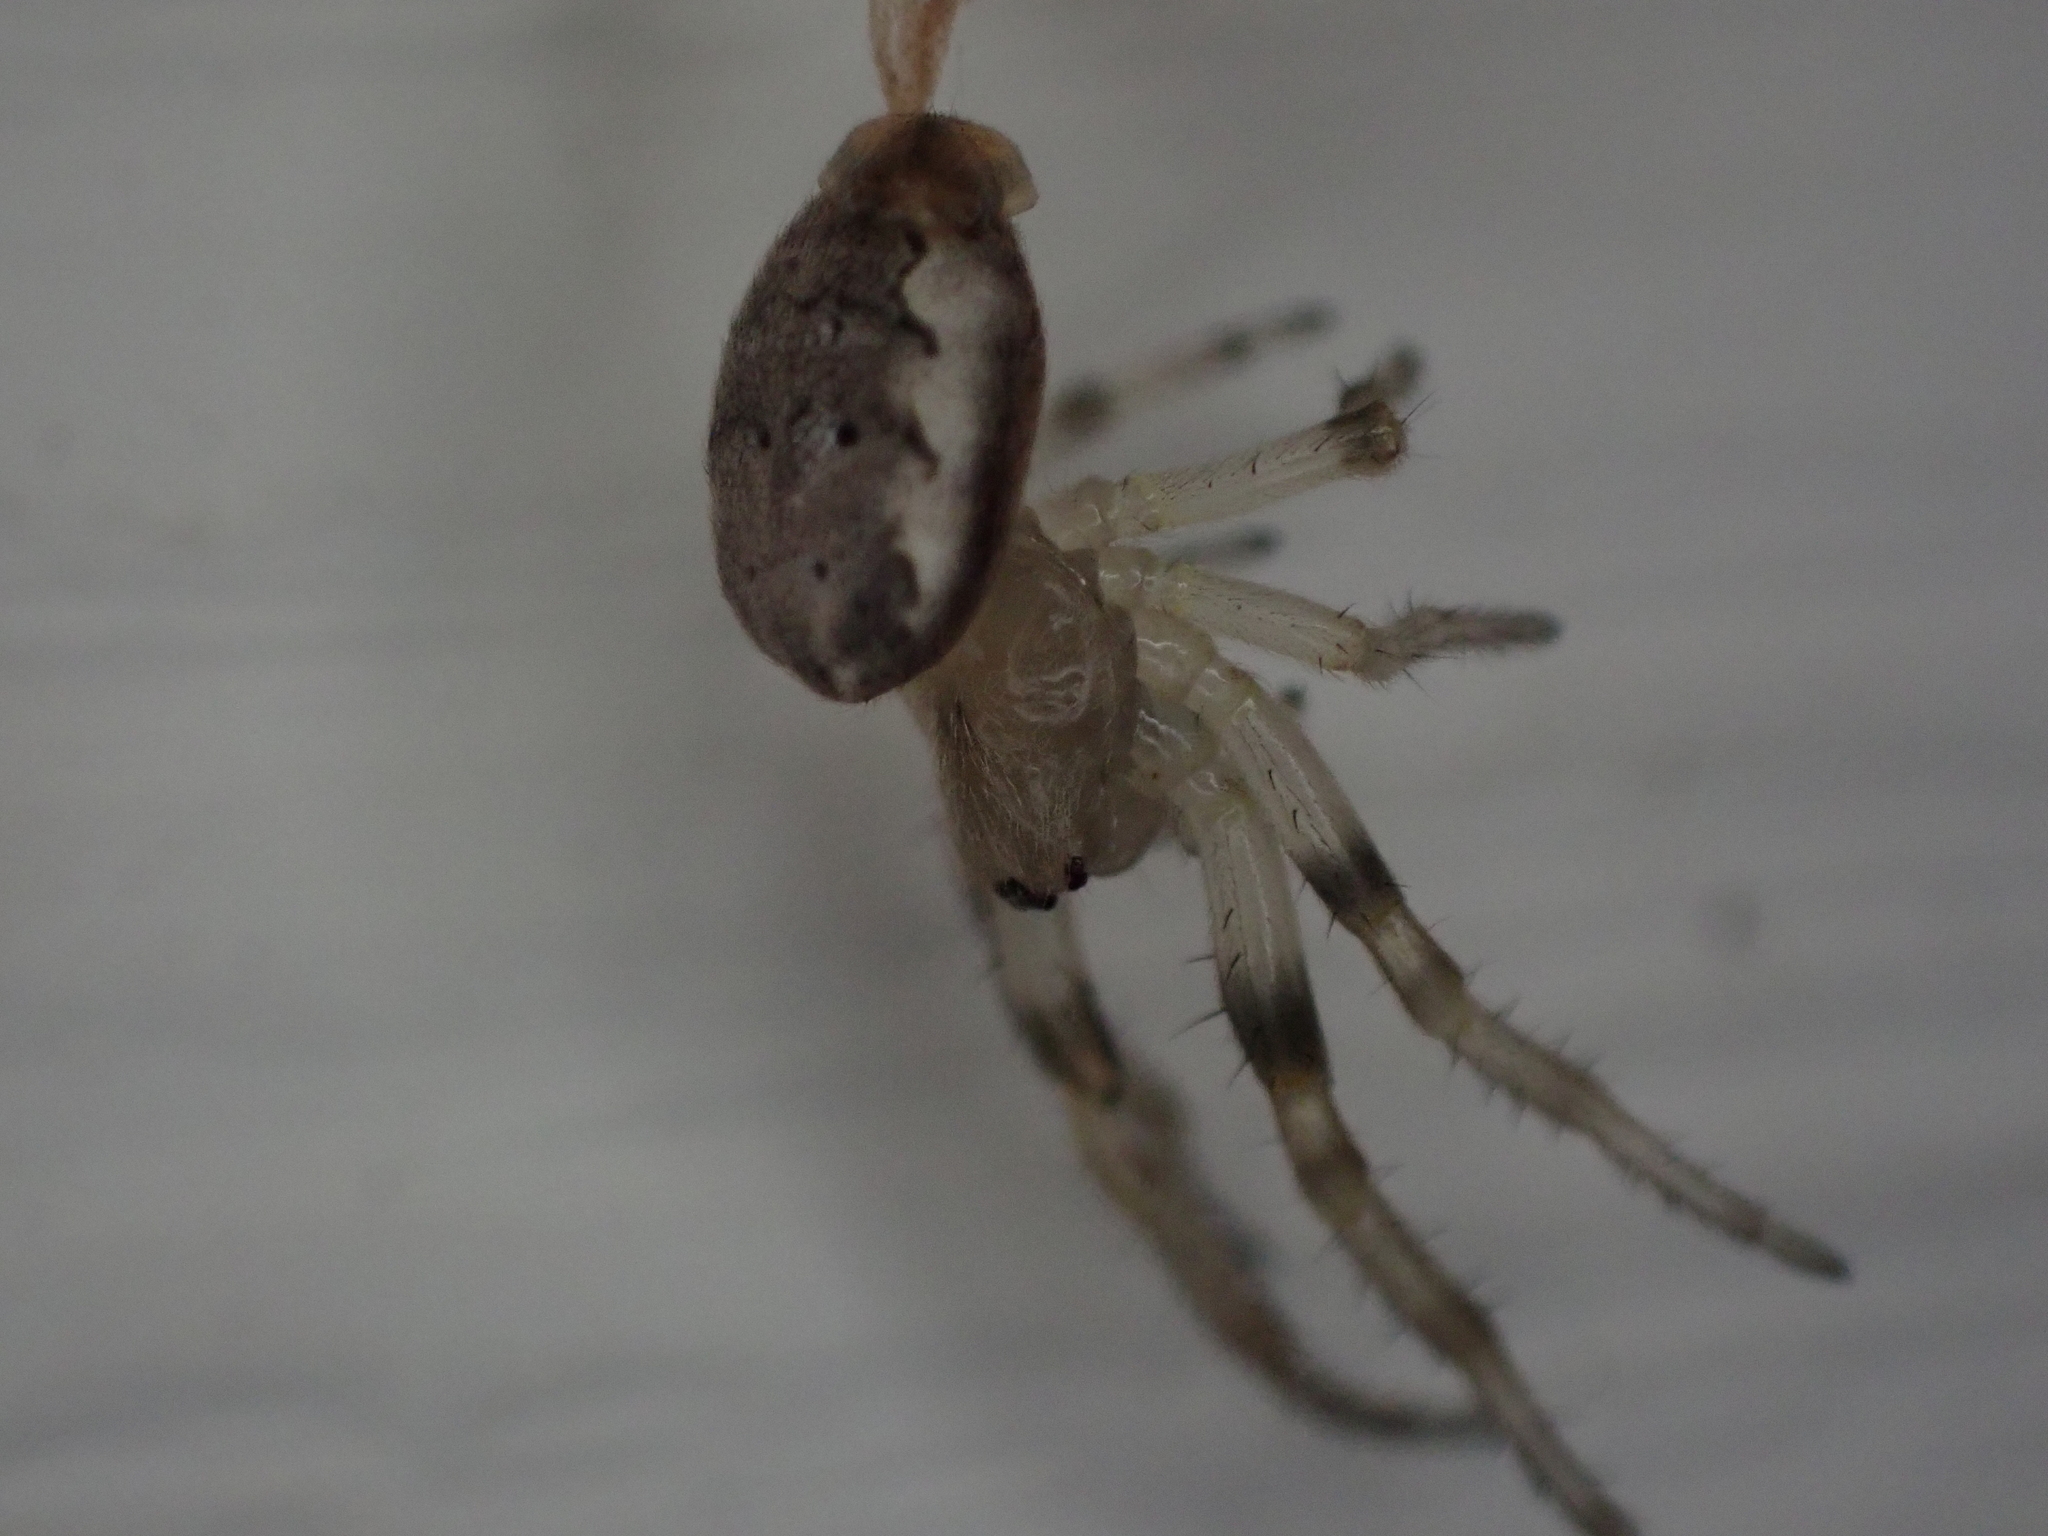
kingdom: Animalia
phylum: Arthropoda
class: Arachnida
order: Araneae
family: Araneidae
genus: Larinioides
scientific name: Larinioides cornutus
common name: Furrow orbweaver
